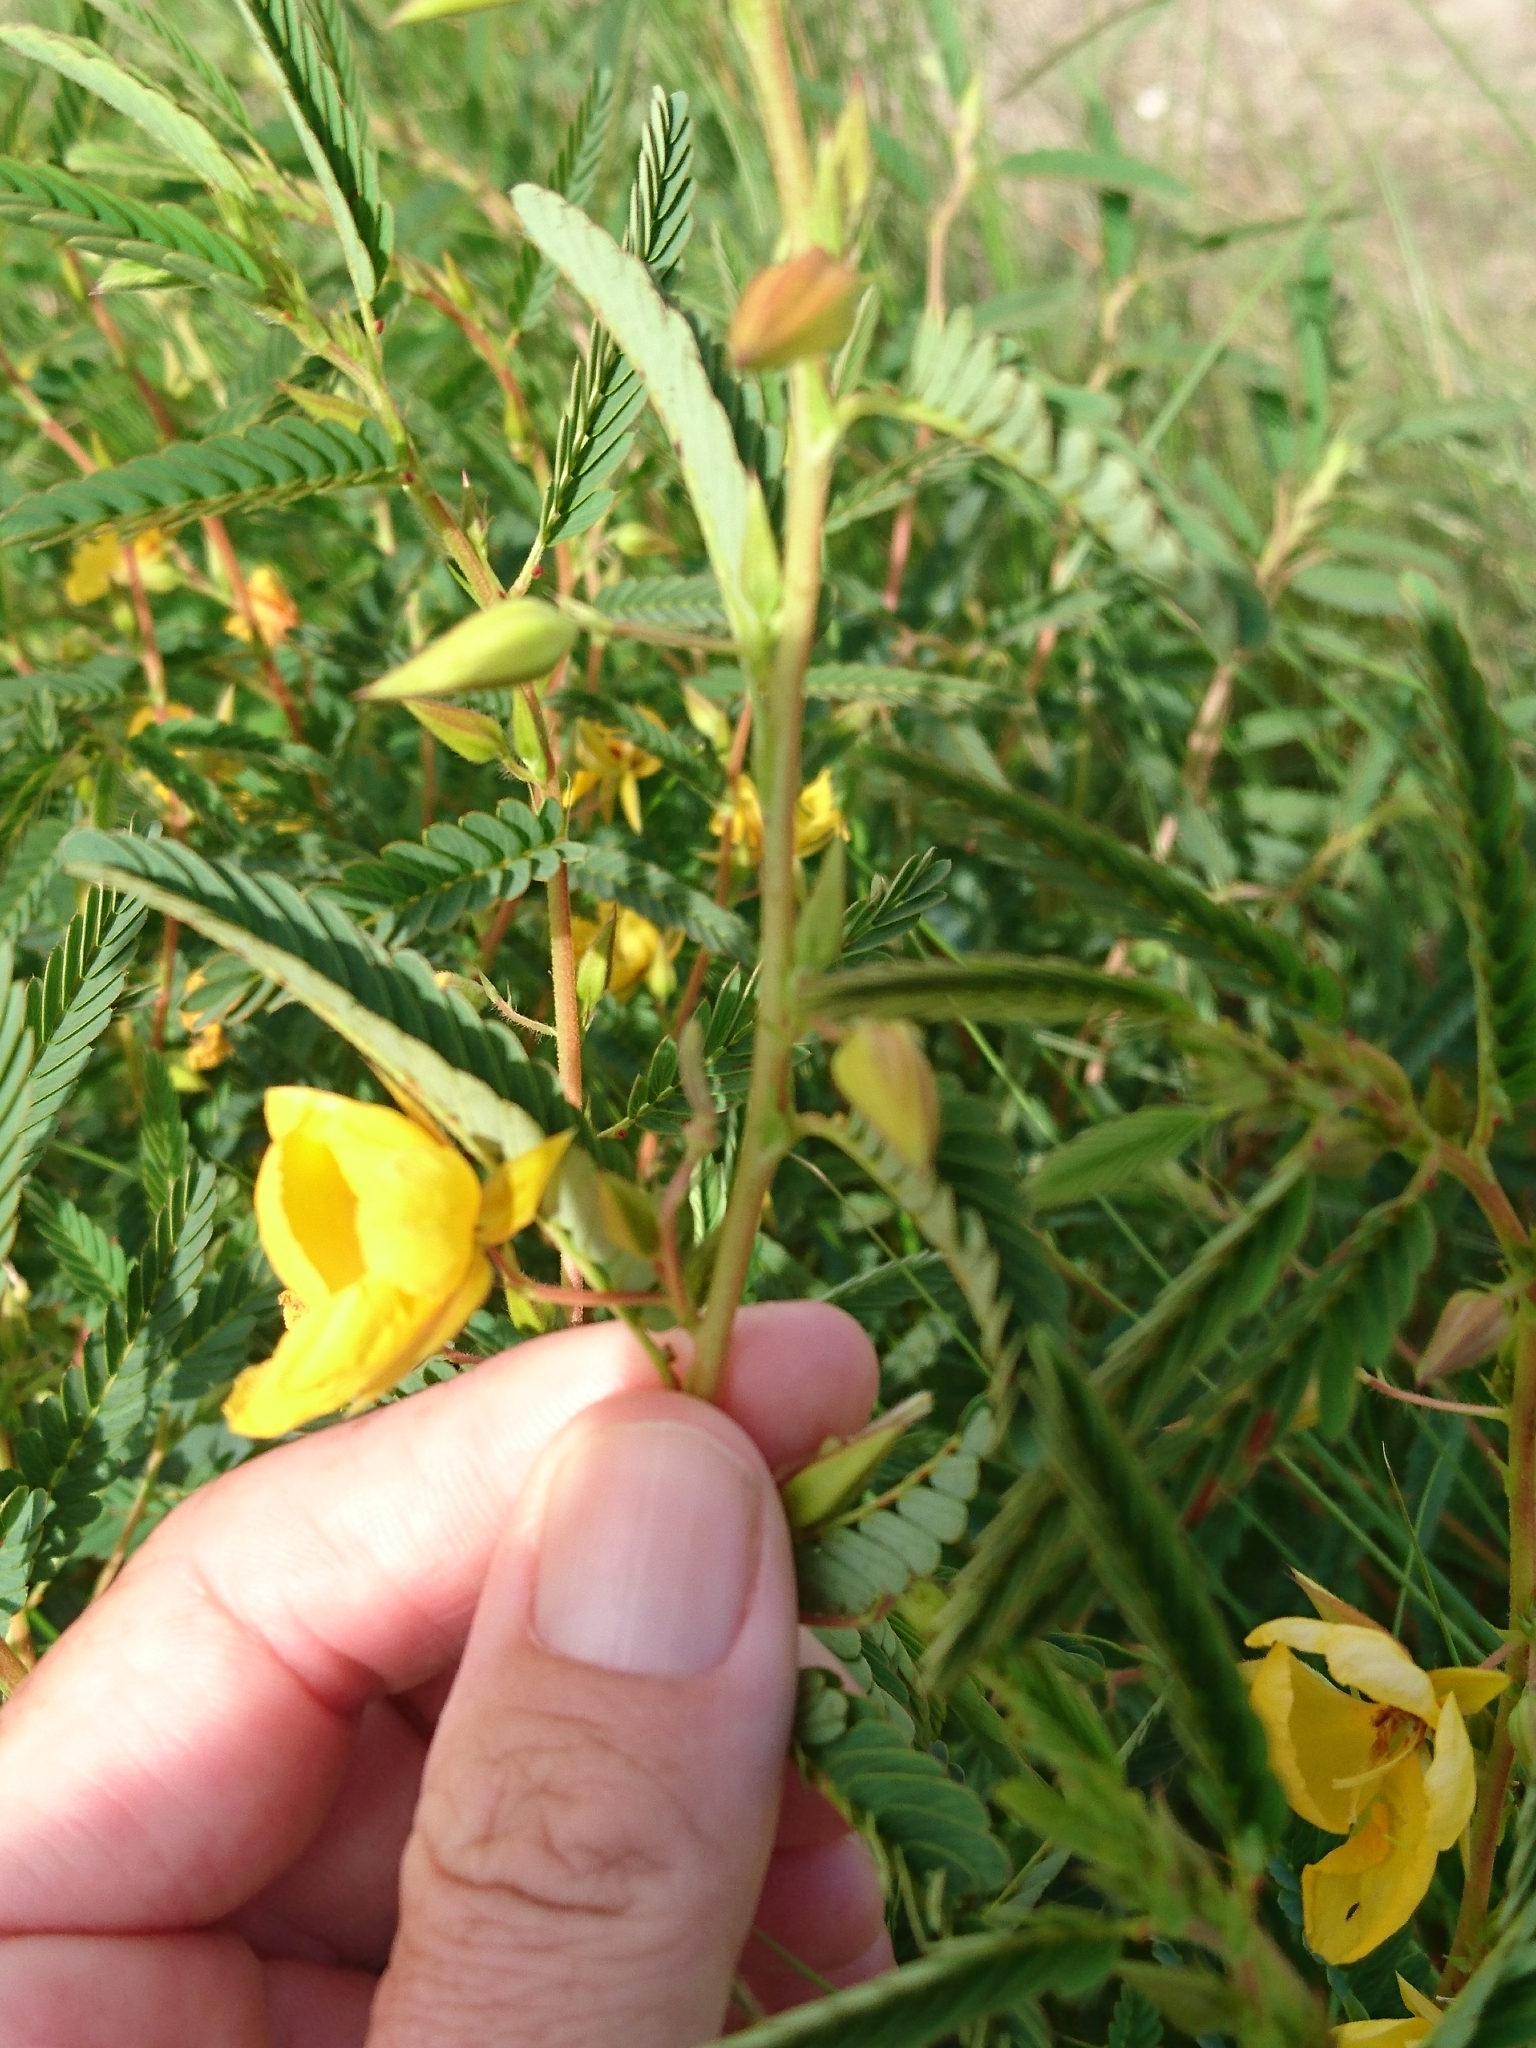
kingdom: Plantae
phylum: Tracheophyta
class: Magnoliopsida
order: Fabales
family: Fabaceae
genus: Chamaecrista
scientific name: Chamaecrista fasciculata
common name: Golden cassia
